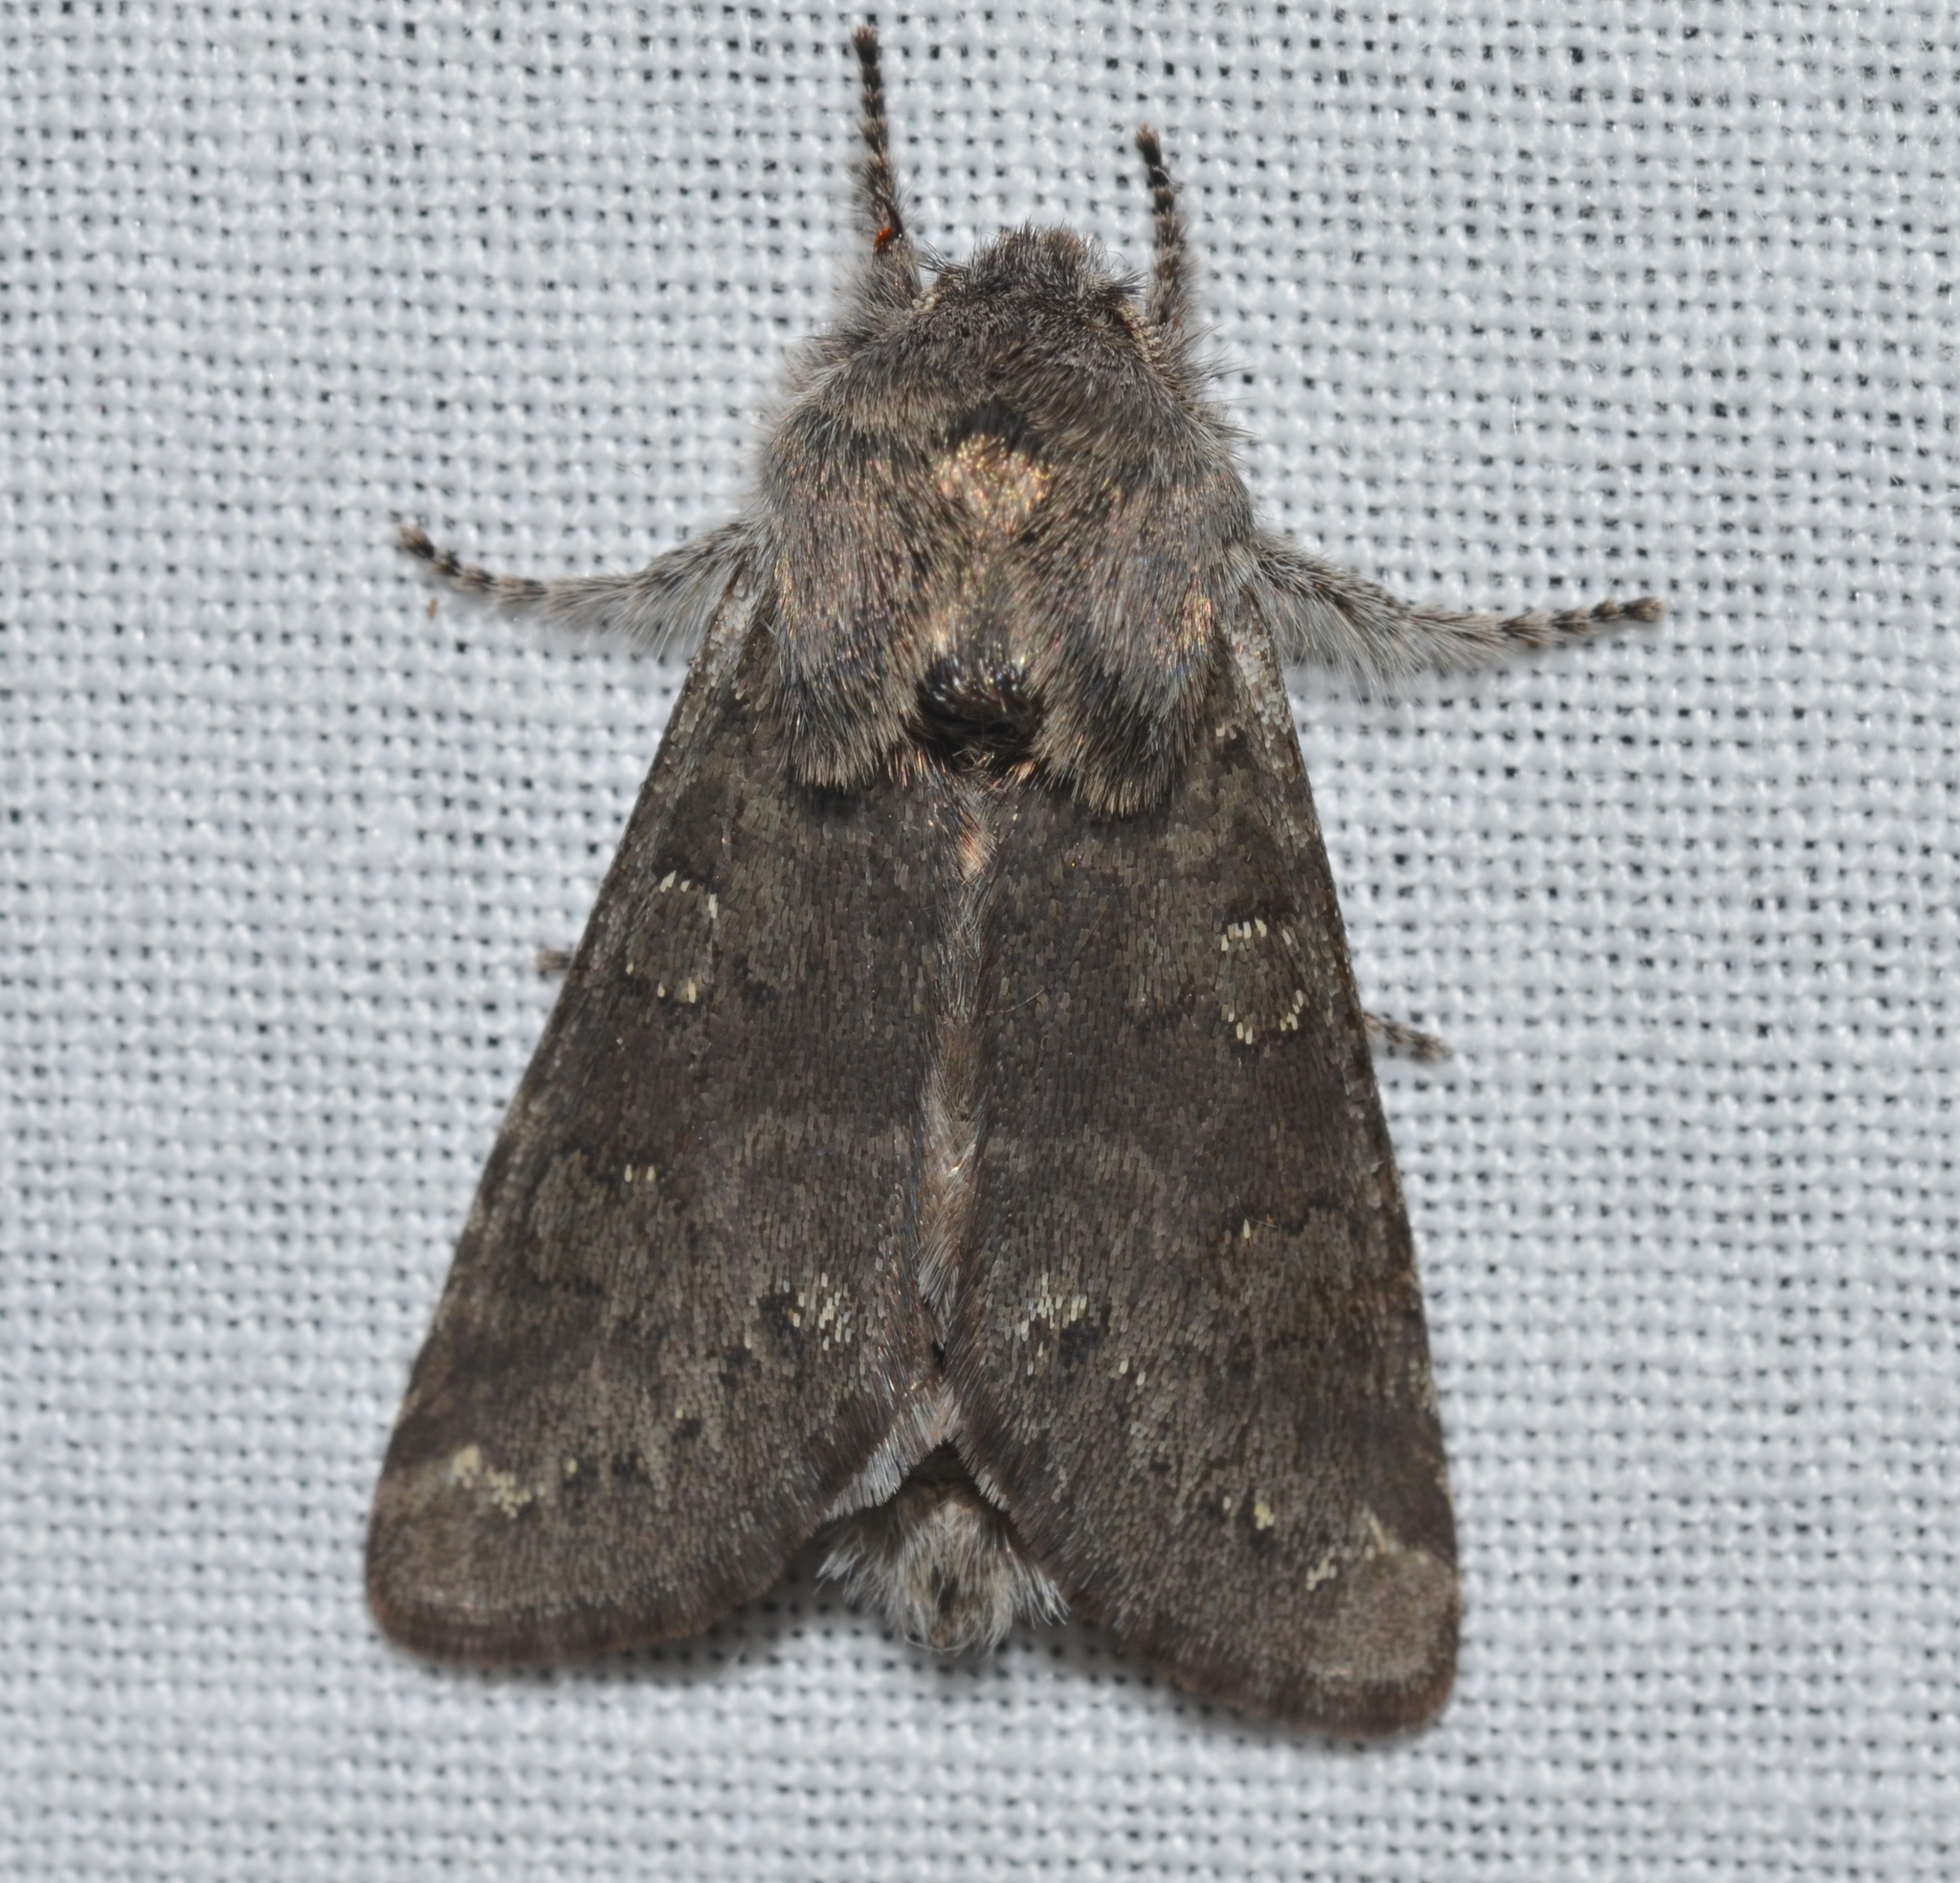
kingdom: Animalia
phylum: Arthropoda
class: Insecta
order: Lepidoptera
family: Noctuidae
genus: Psaphida
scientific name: Psaphida rolandi
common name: Roland's sallow
